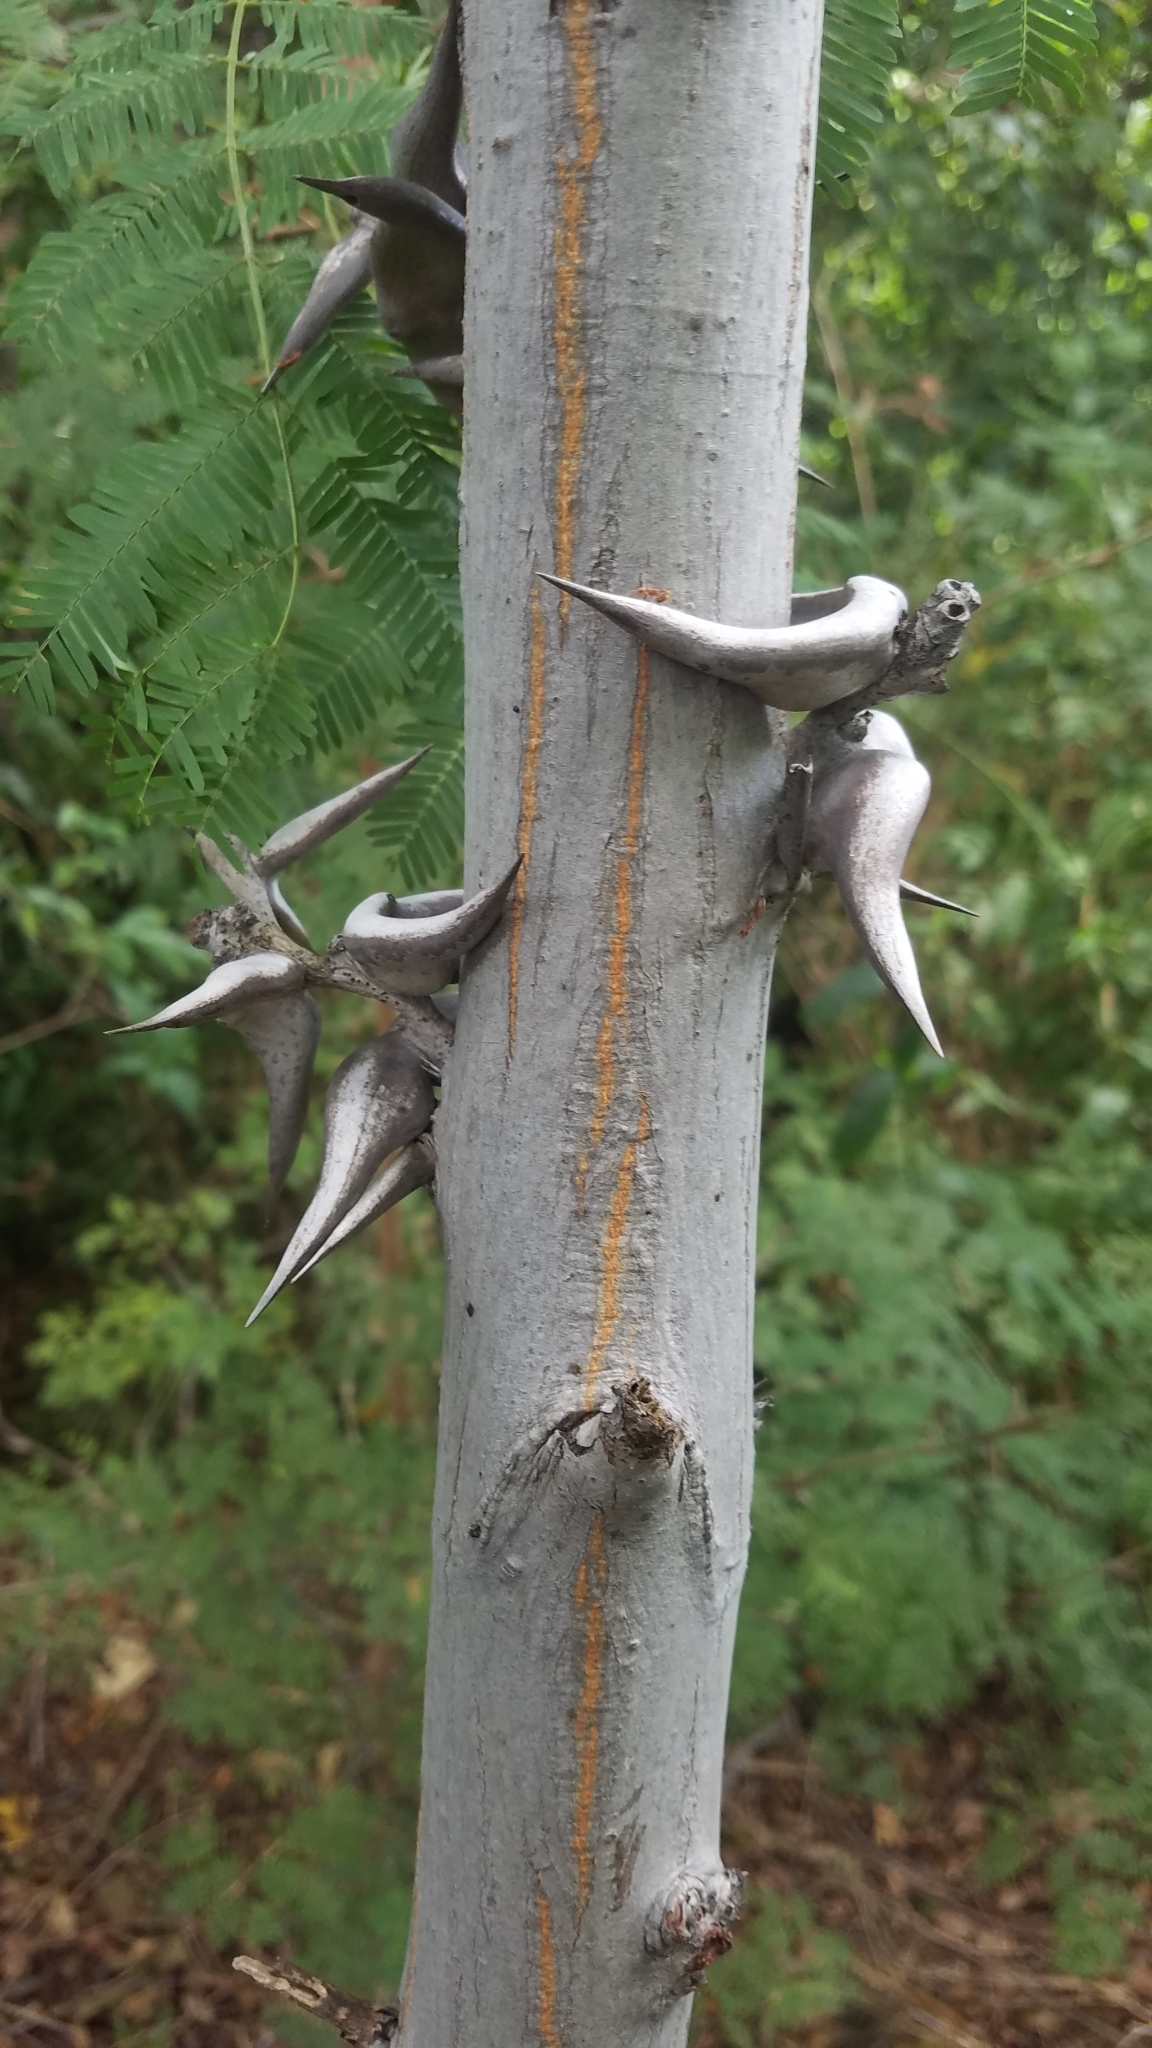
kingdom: Plantae
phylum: Tracheophyta
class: Magnoliopsida
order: Fabales
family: Fabaceae
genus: Vachellia
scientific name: Vachellia collinsii
